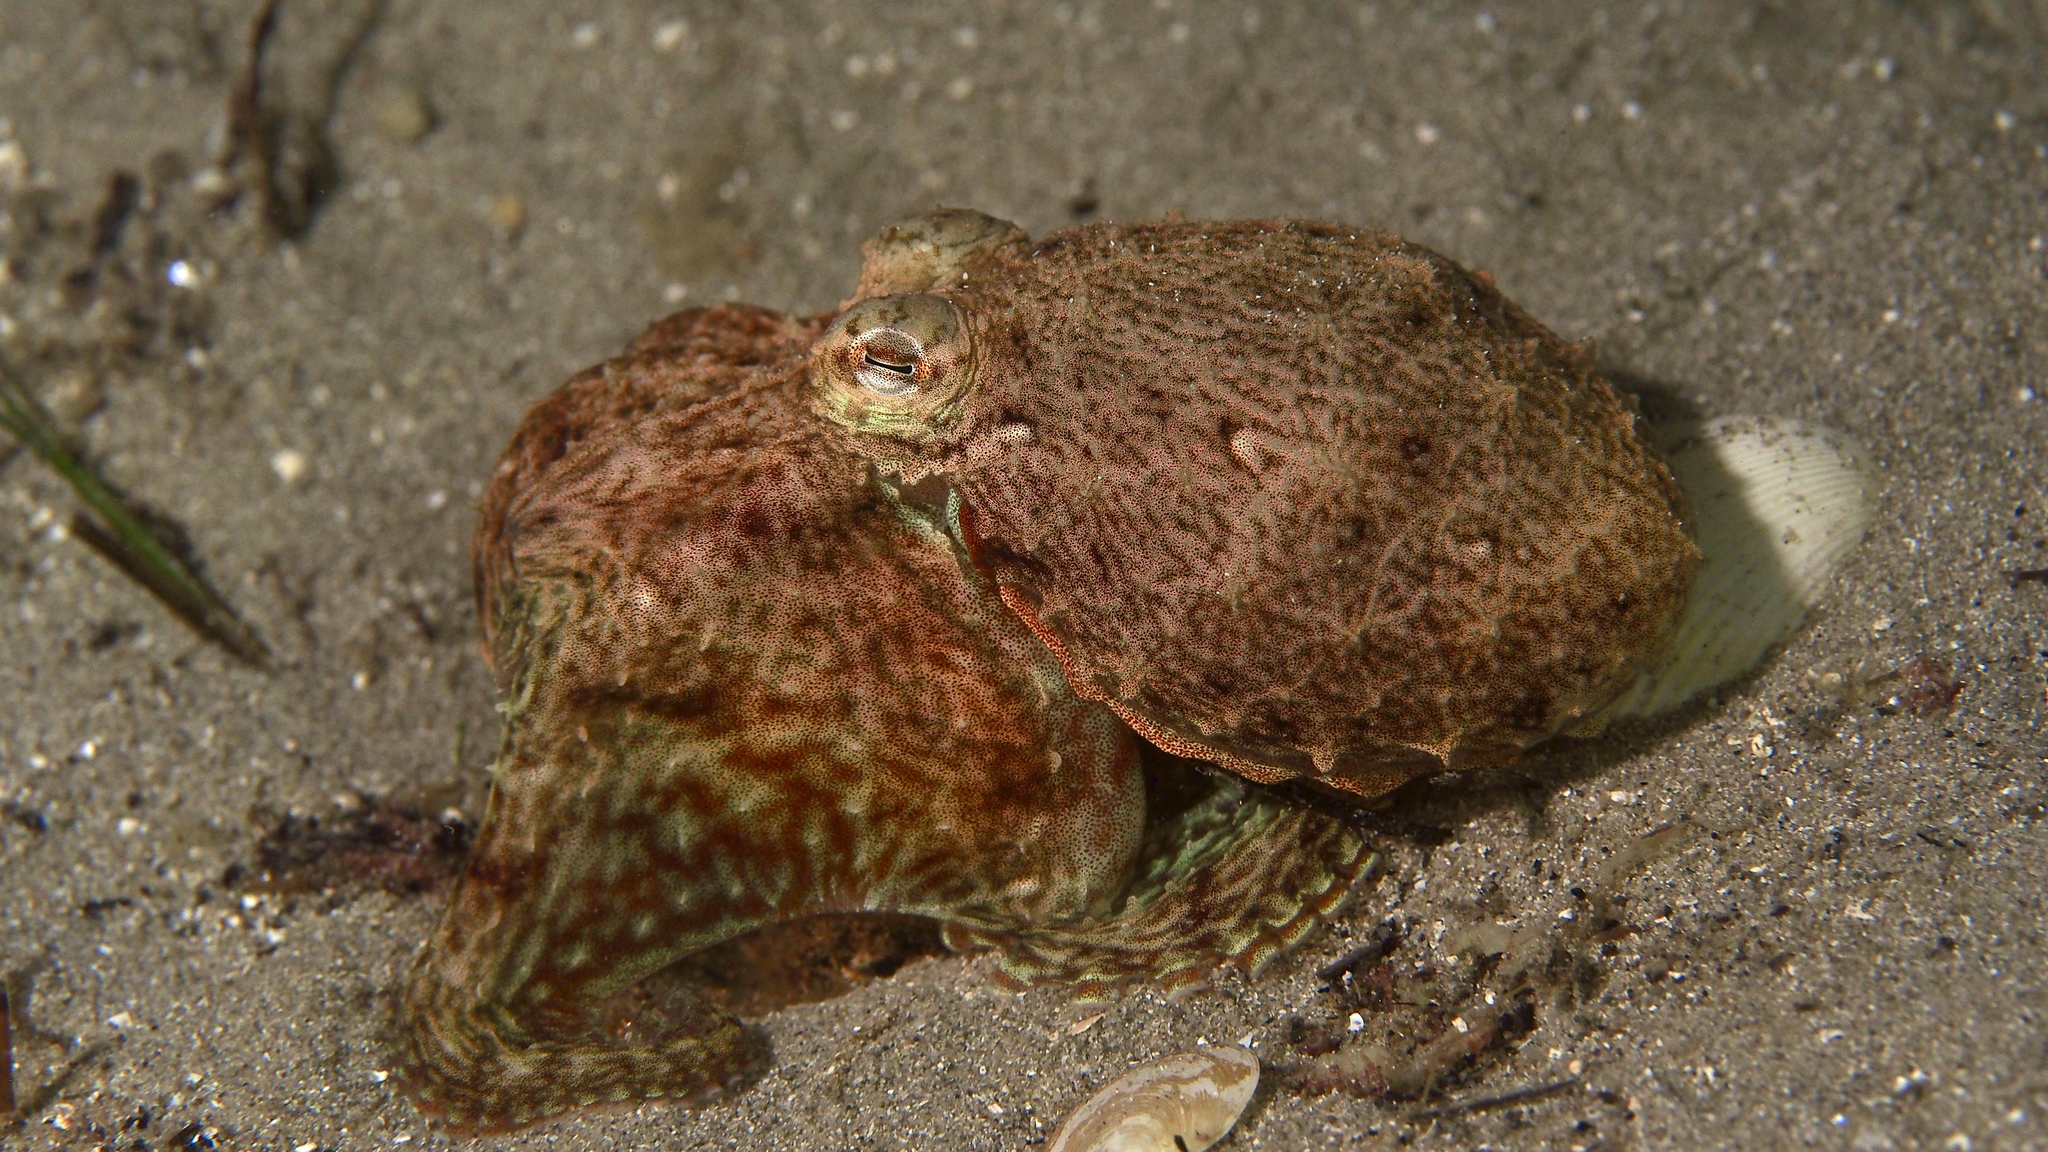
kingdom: Animalia
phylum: Mollusca
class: Cephalopoda
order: Octopoda
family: Octopodidae
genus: Octopus
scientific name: Octopus berrima
